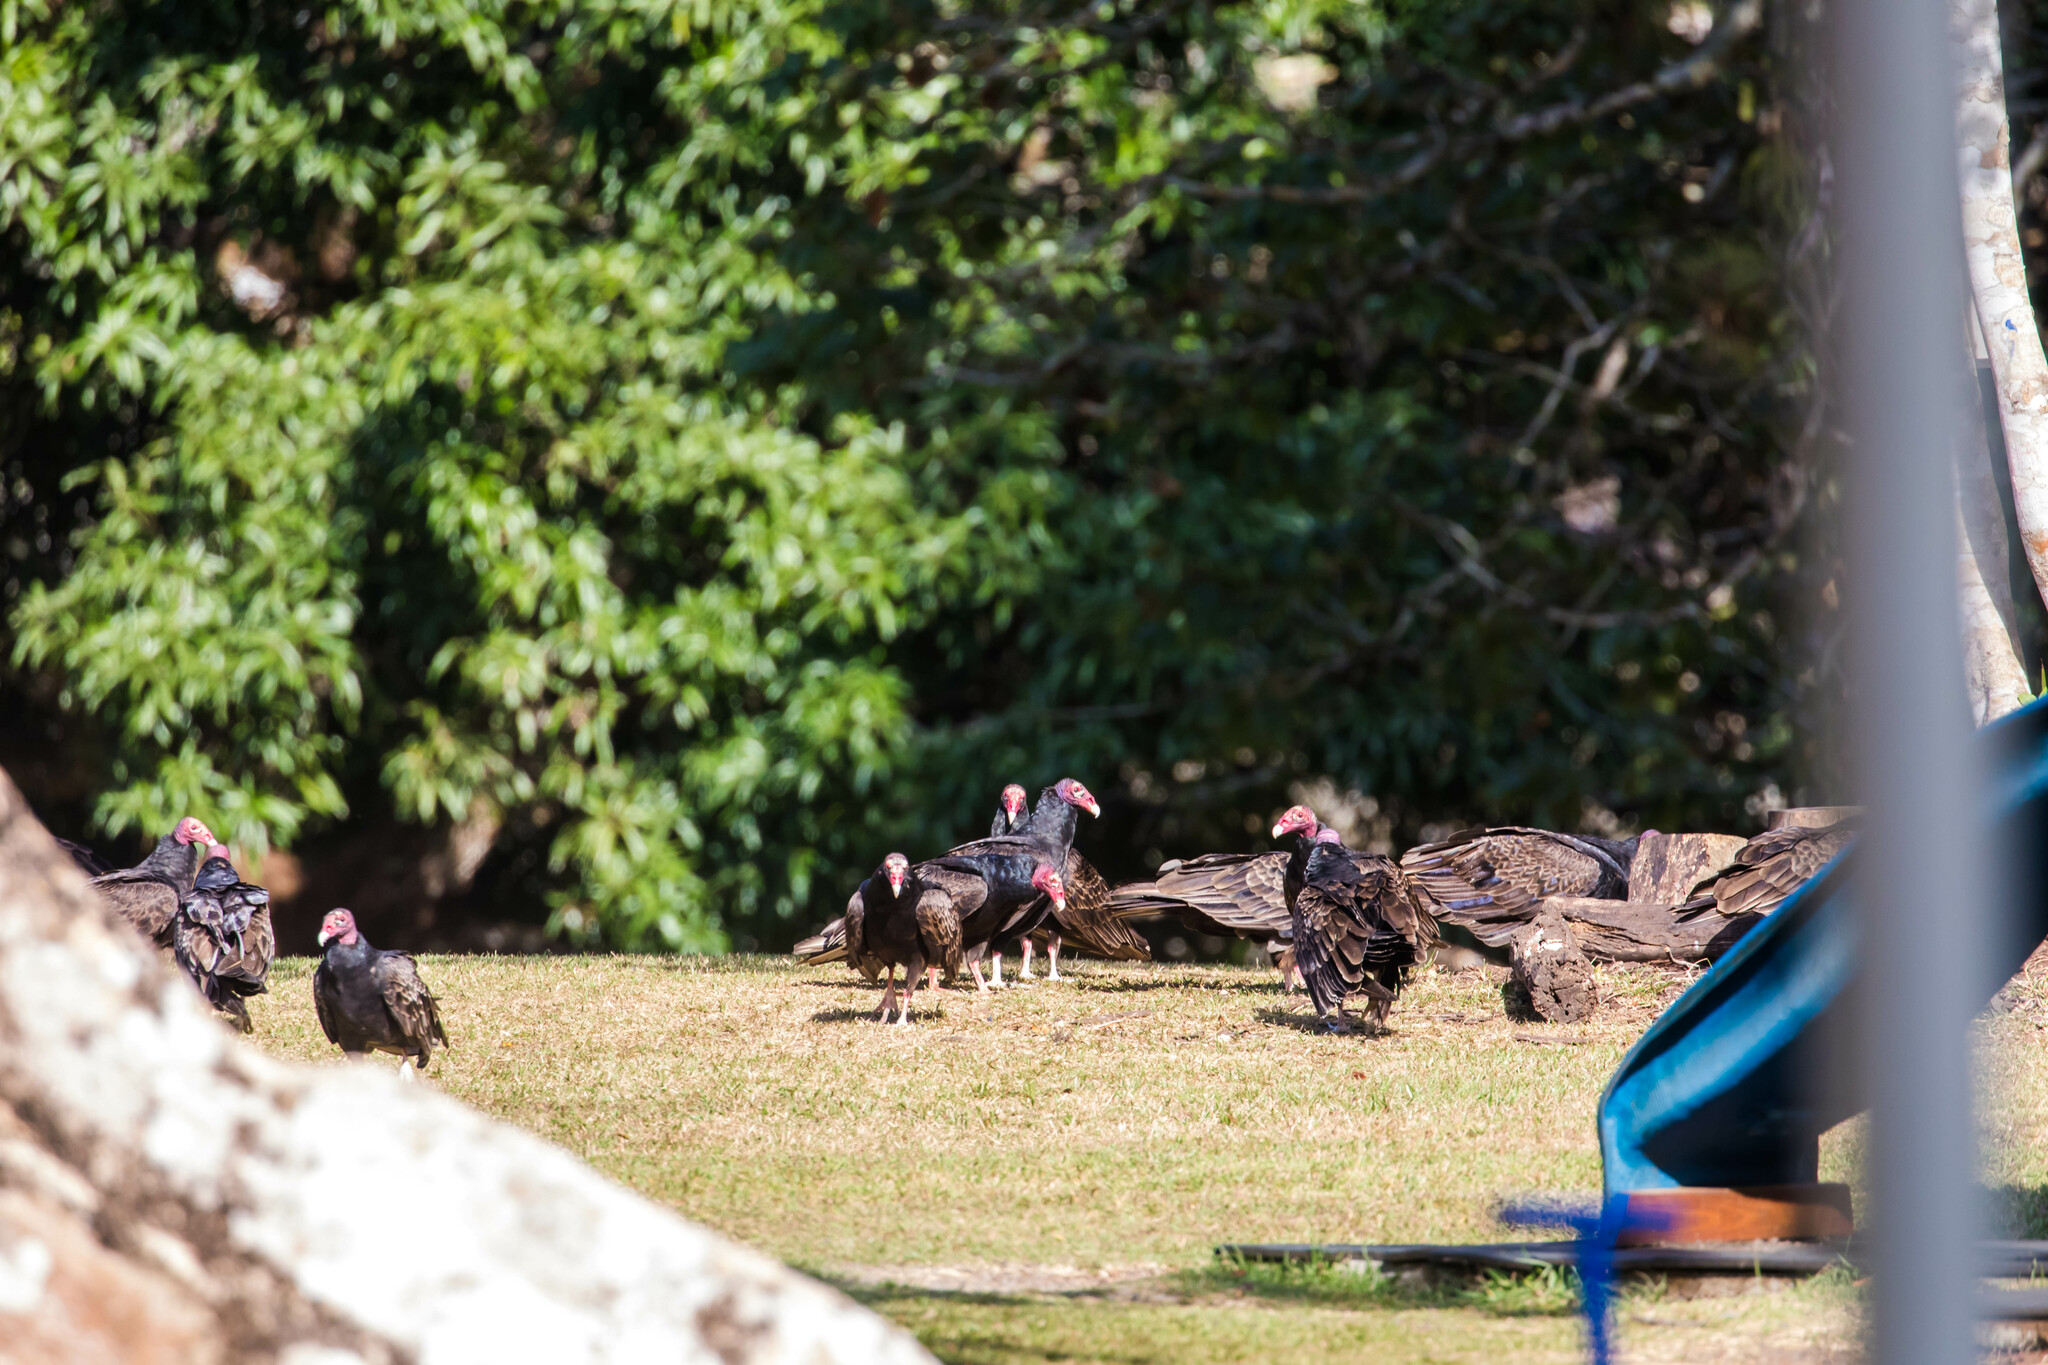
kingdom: Animalia
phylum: Chordata
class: Aves
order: Accipitriformes
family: Cathartidae
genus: Cathartes
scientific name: Cathartes aura
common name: Turkey vulture
